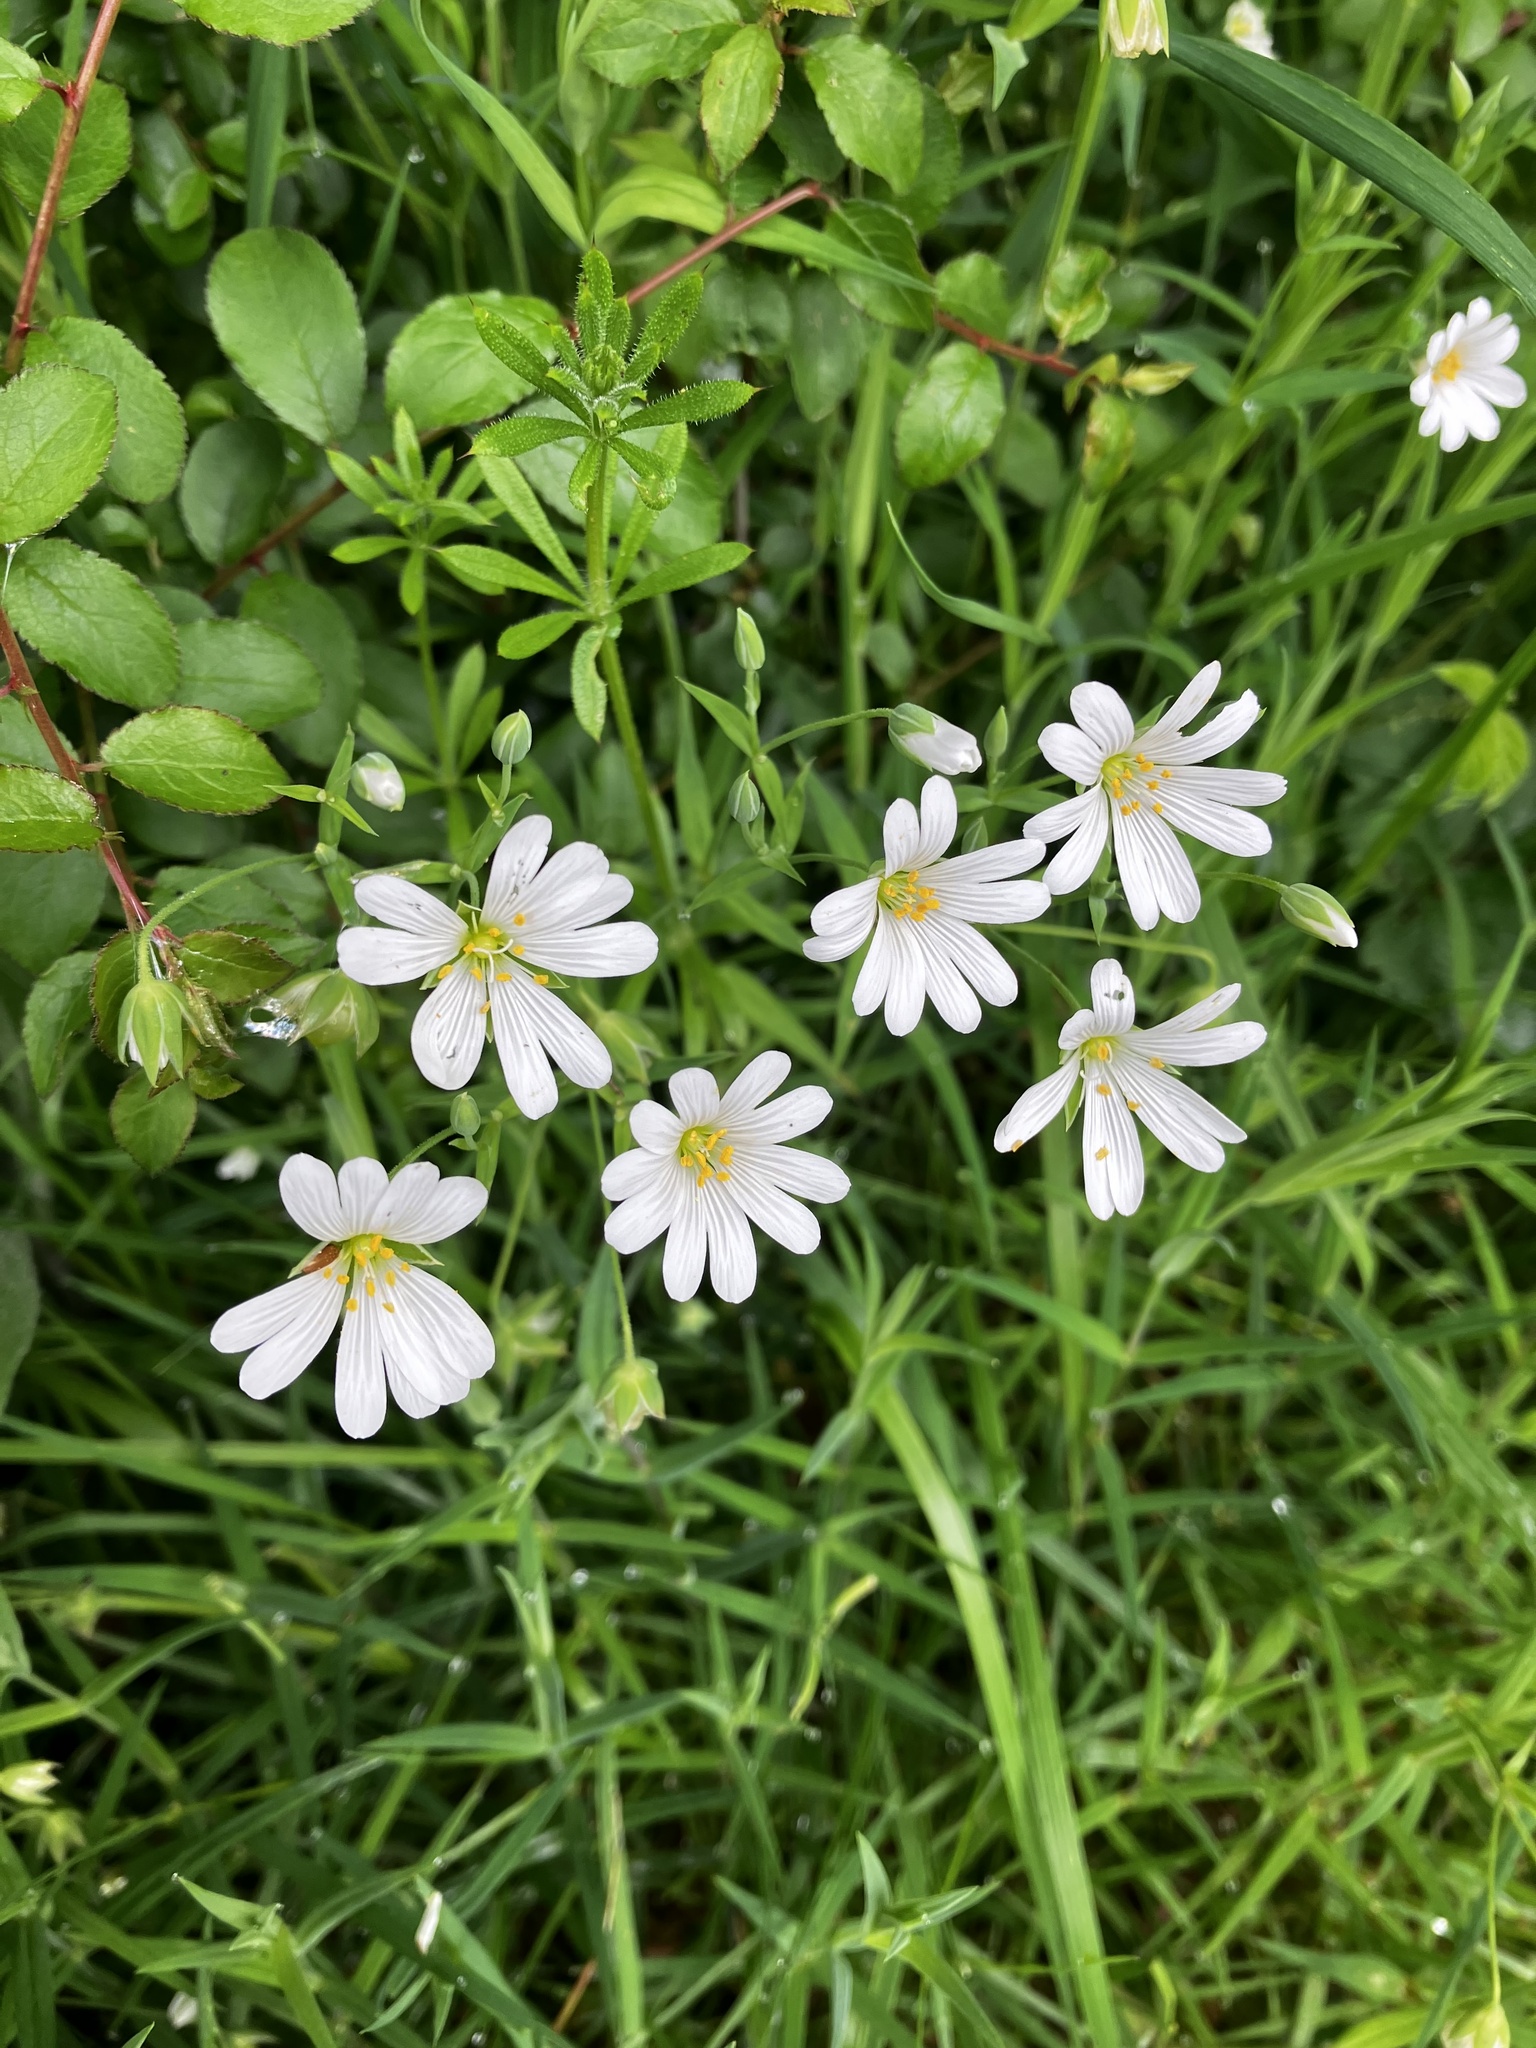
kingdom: Plantae
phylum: Tracheophyta
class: Magnoliopsida
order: Caryophyllales
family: Caryophyllaceae
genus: Rabelera
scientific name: Rabelera holostea
